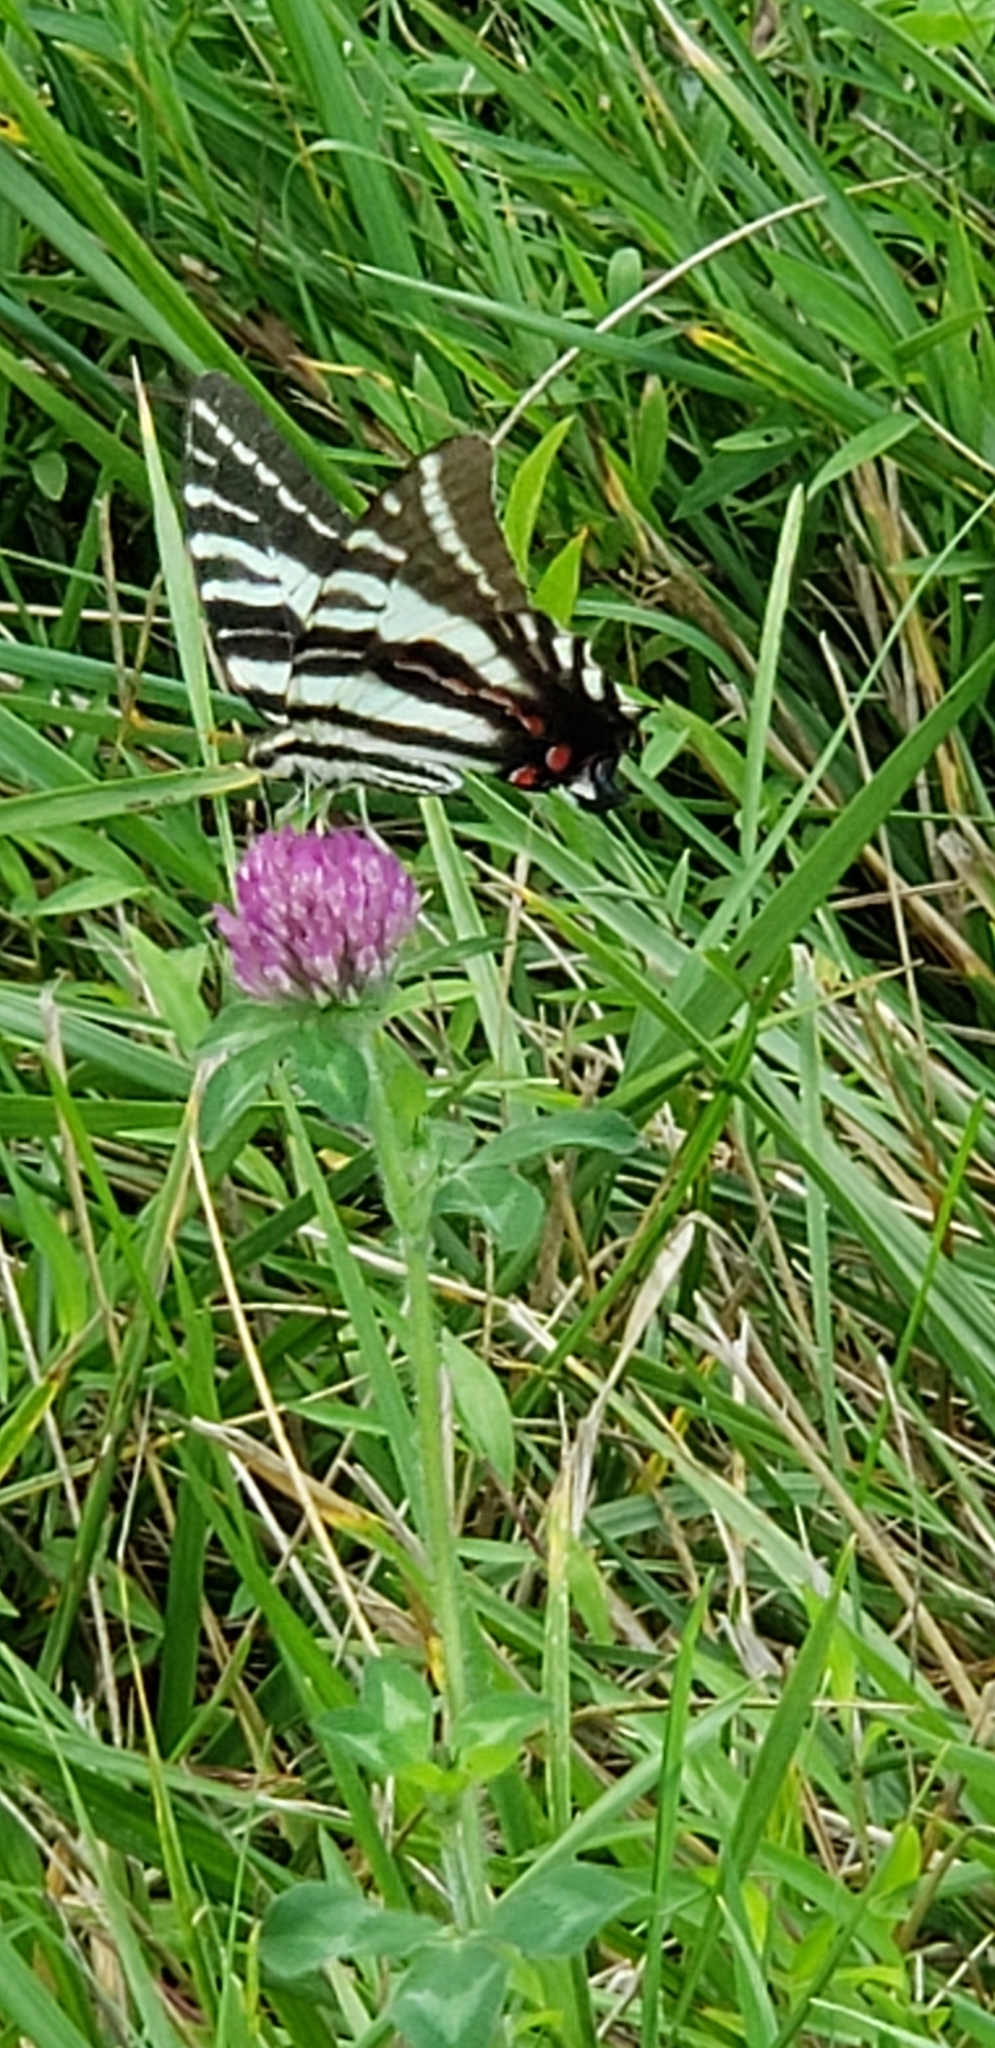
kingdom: Animalia
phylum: Arthropoda
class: Insecta
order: Lepidoptera
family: Papilionidae
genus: Protographium
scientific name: Protographium marcellus
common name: Zebra swallowtail
